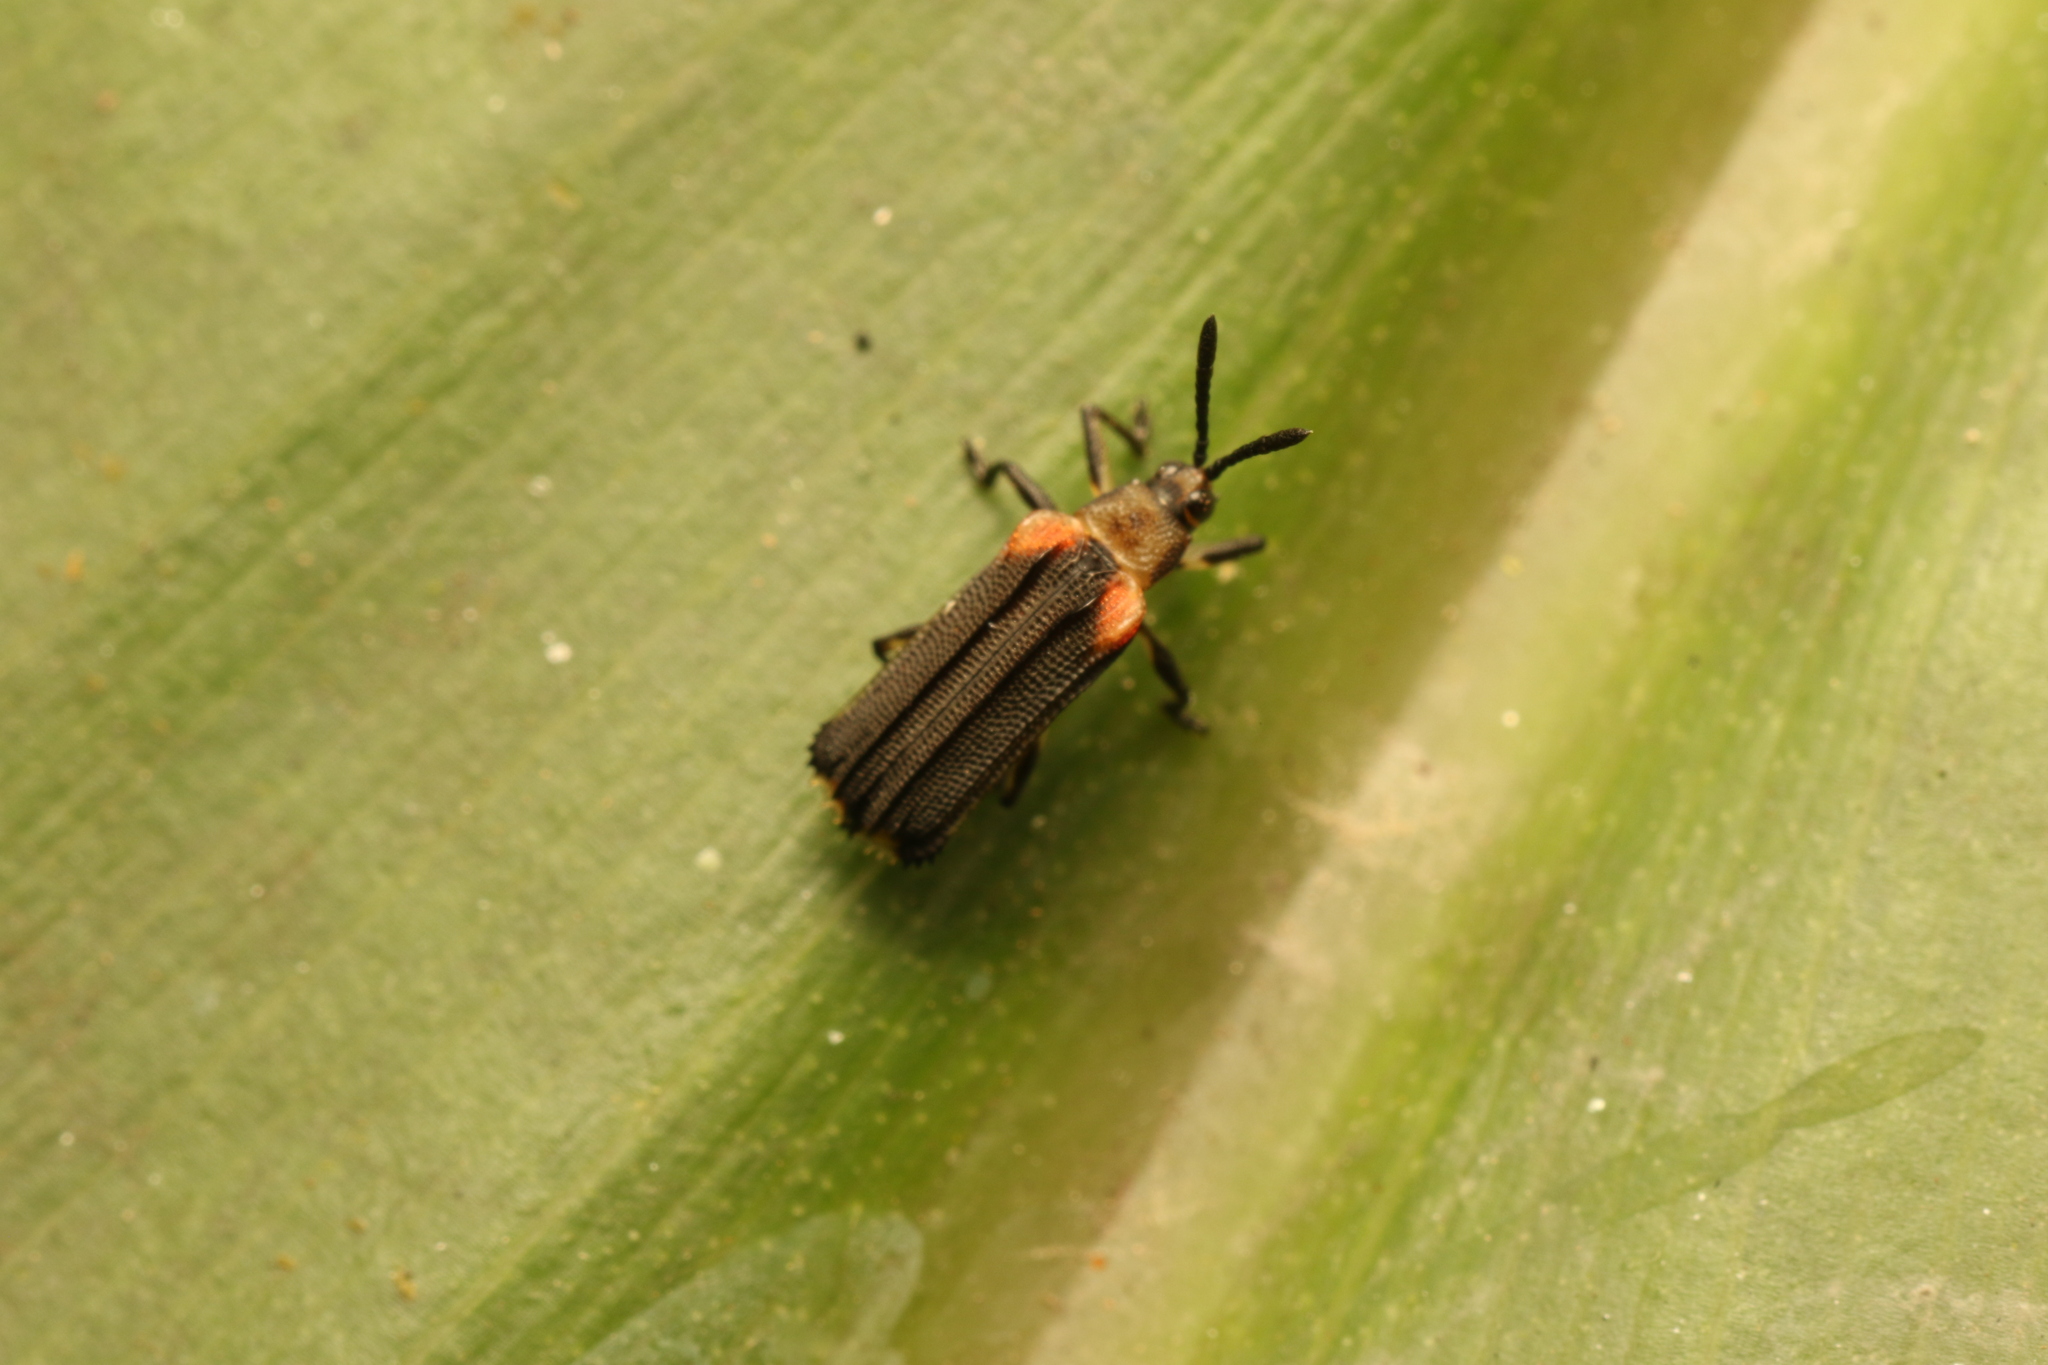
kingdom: Animalia
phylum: Arthropoda
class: Insecta
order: Coleoptera
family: Chrysomelidae
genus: Heterispa
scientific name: Heterispa vinula
